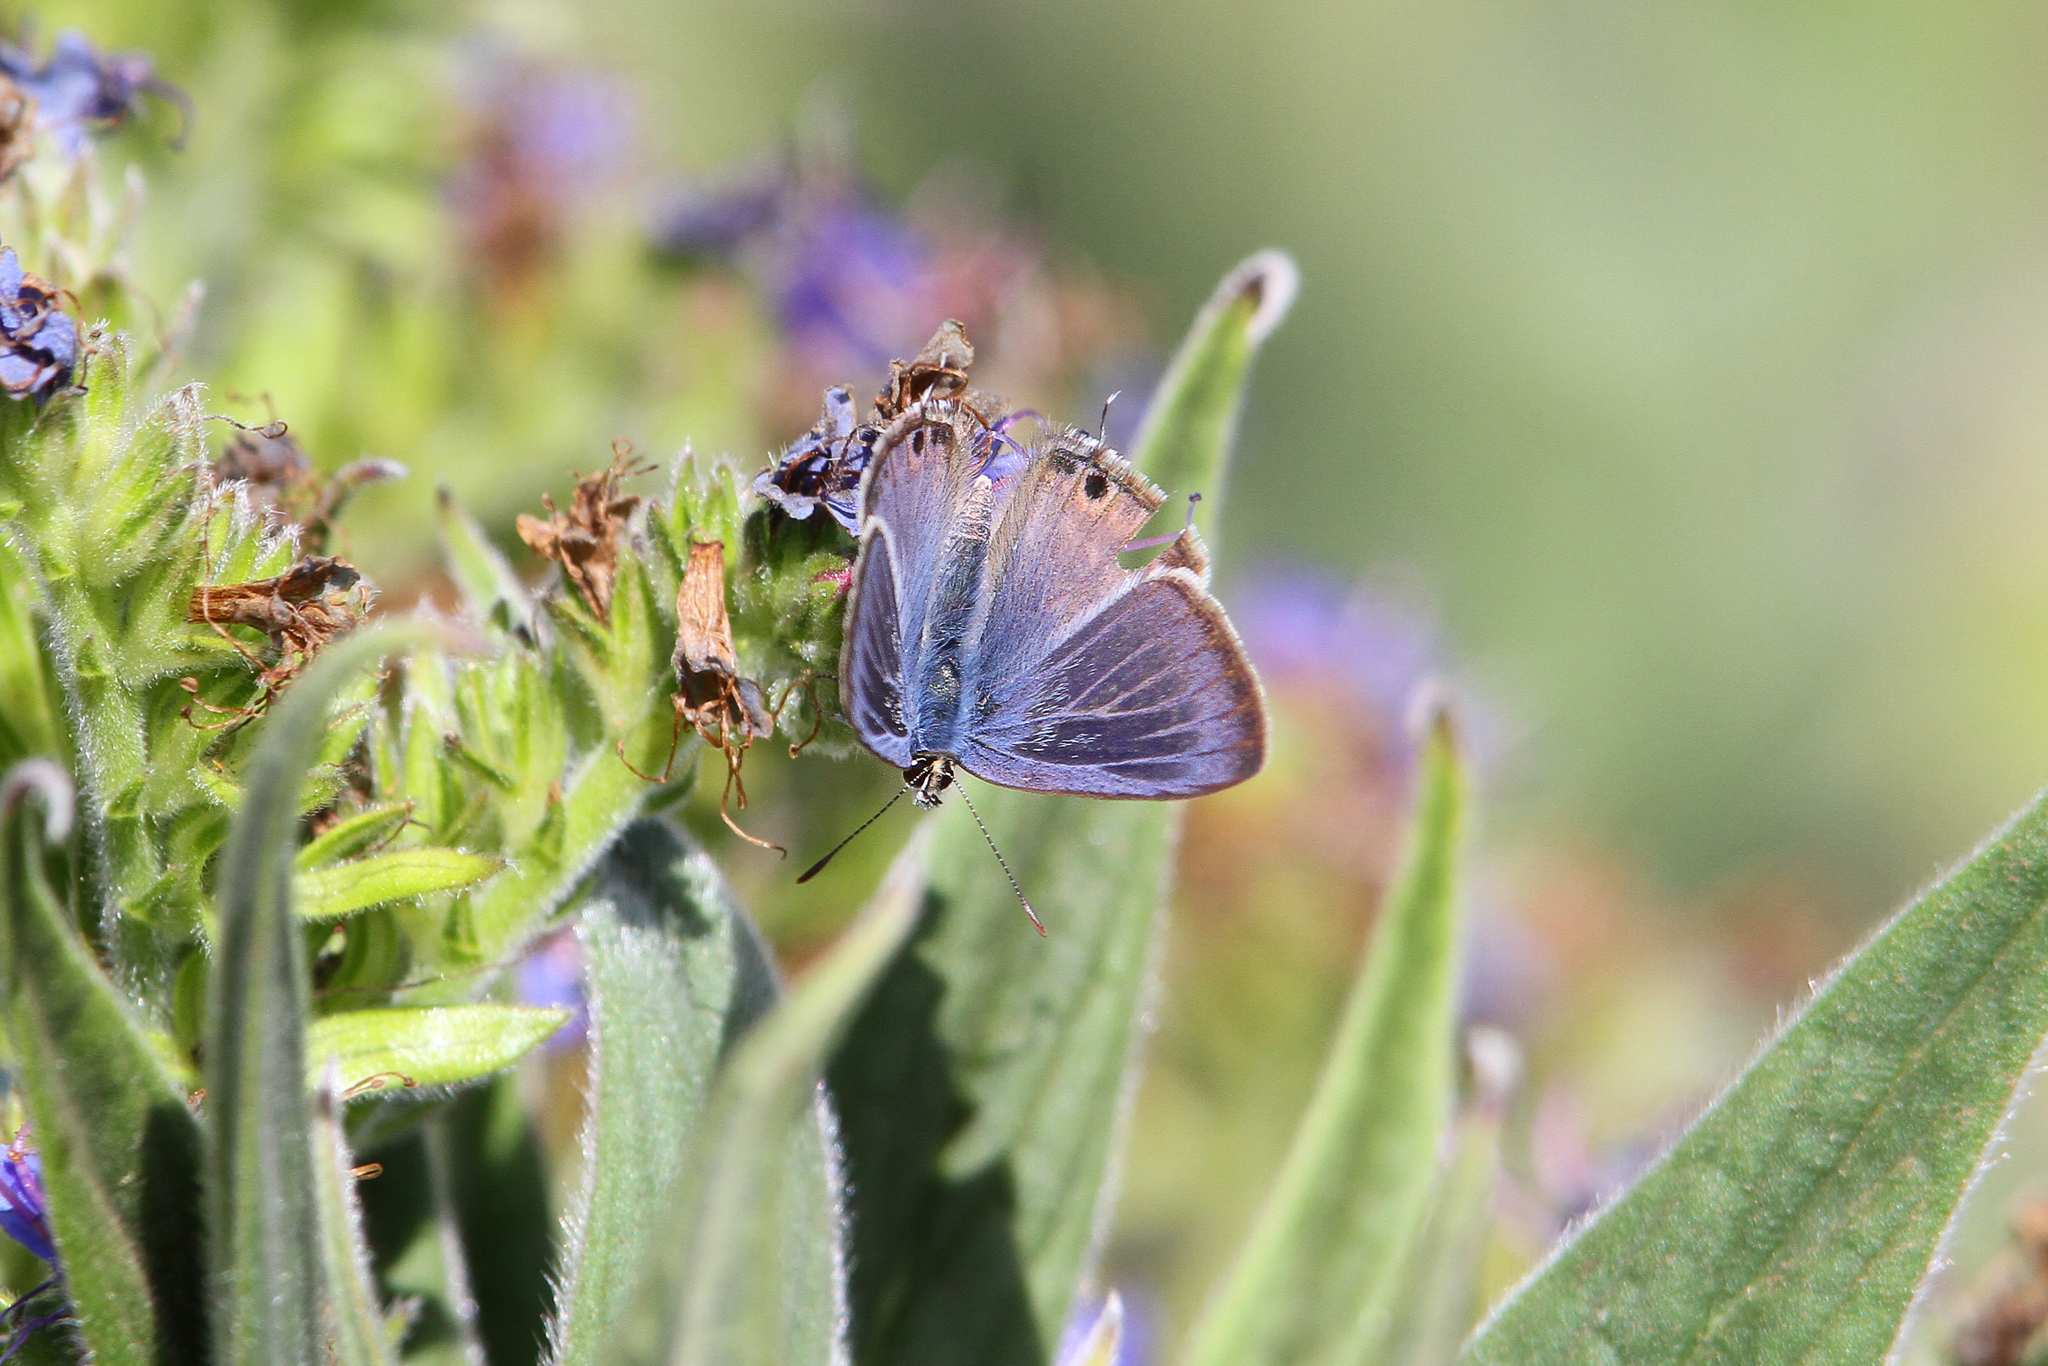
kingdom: Animalia
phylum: Arthropoda
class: Insecta
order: Lepidoptera
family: Lycaenidae
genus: Lampides
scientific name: Lampides boeticus
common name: Long-tailed blue
